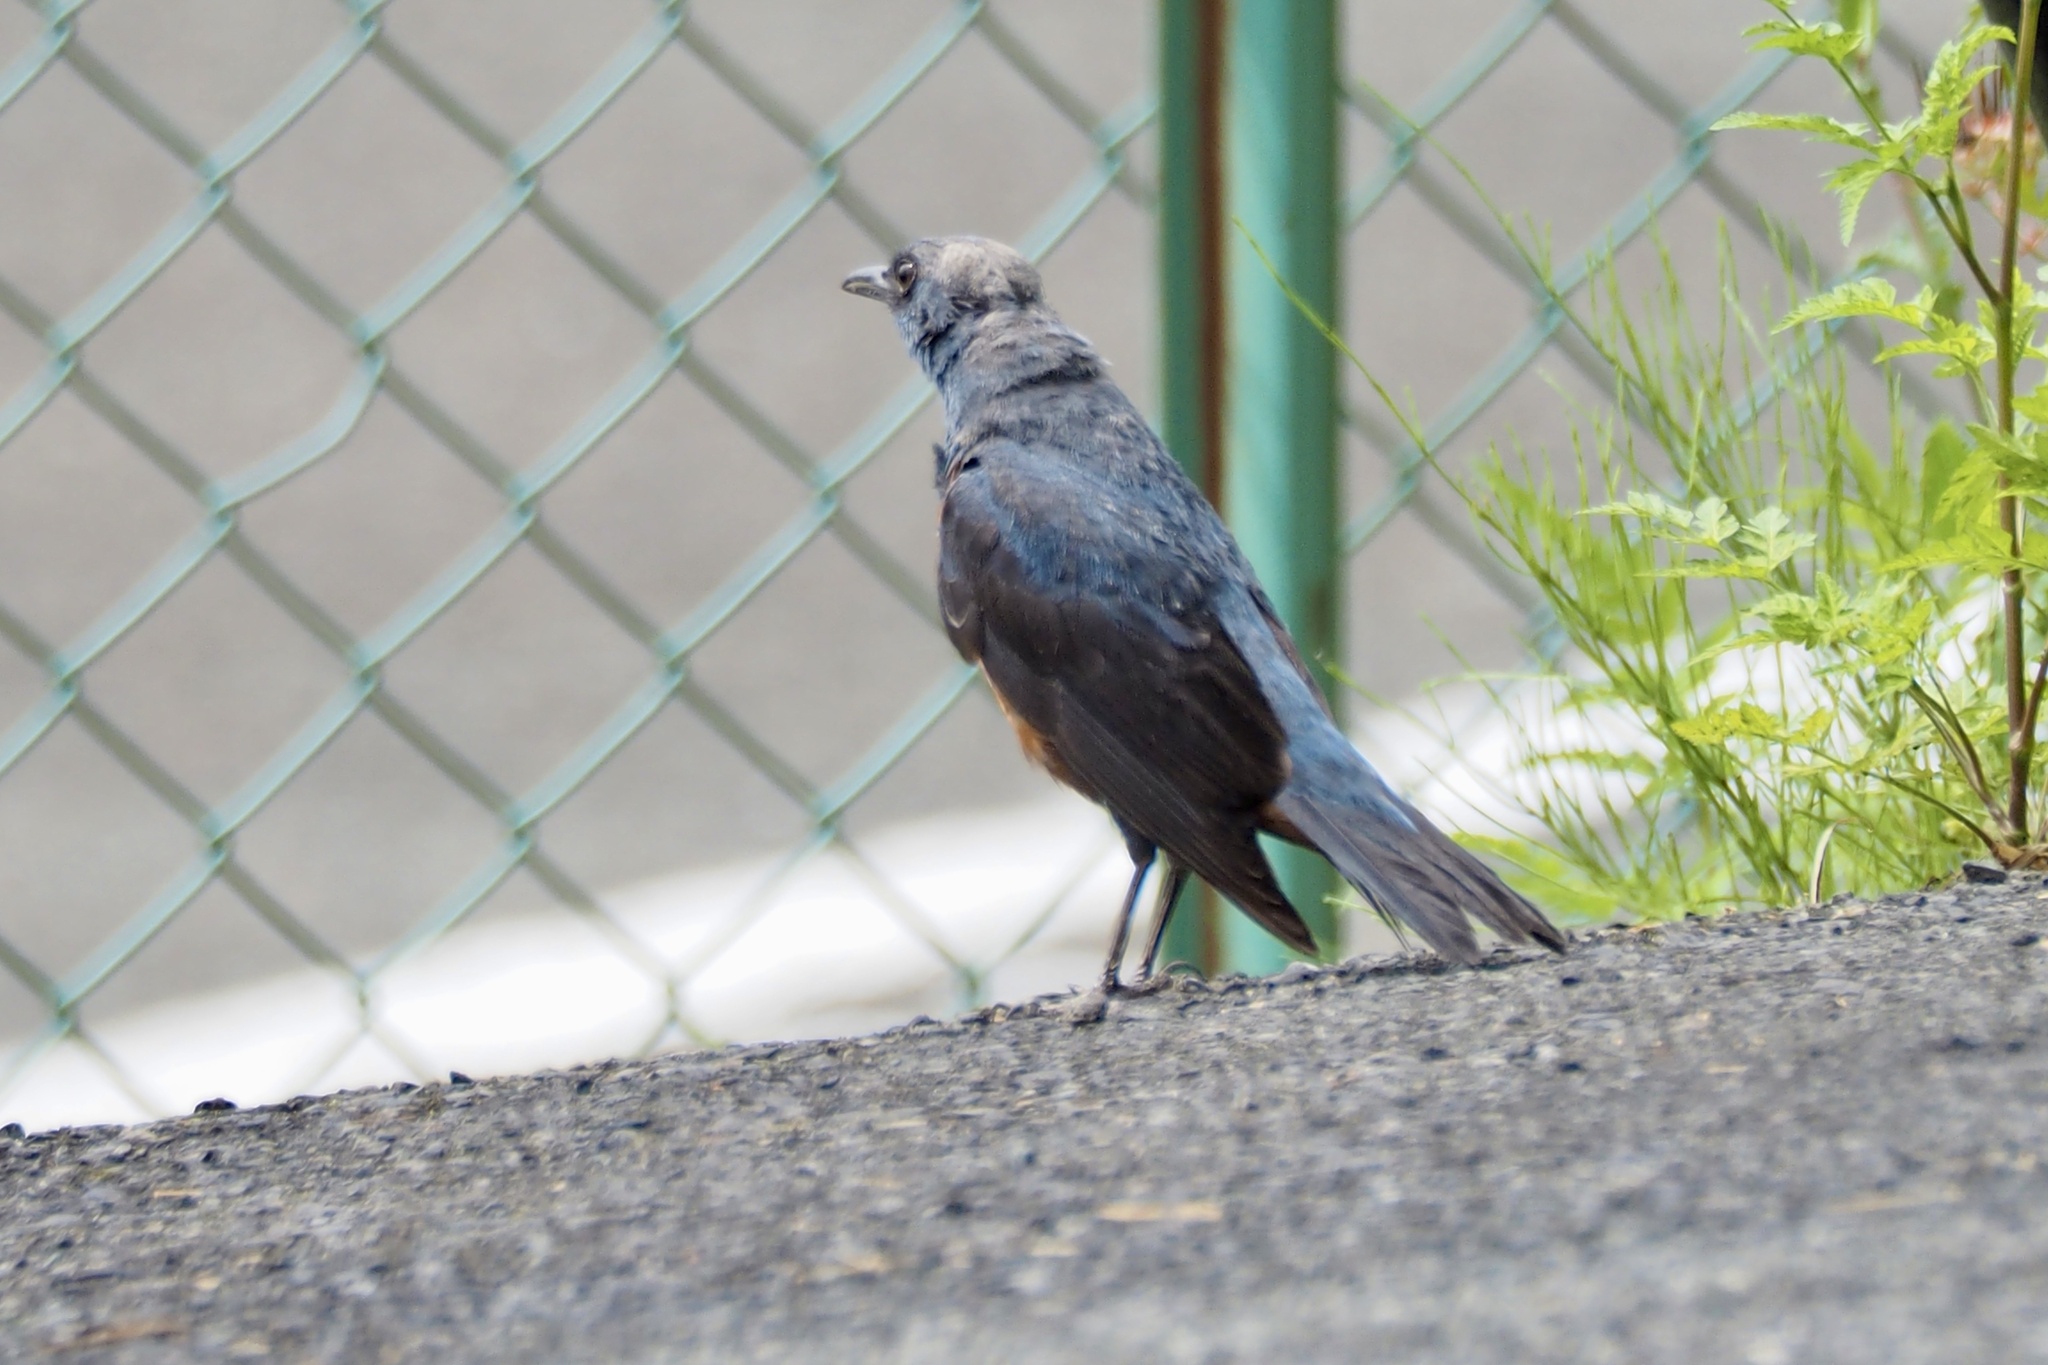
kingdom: Animalia
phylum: Chordata
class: Aves
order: Passeriformes
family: Muscicapidae
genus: Monticola
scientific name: Monticola solitarius
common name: Blue rock thrush
